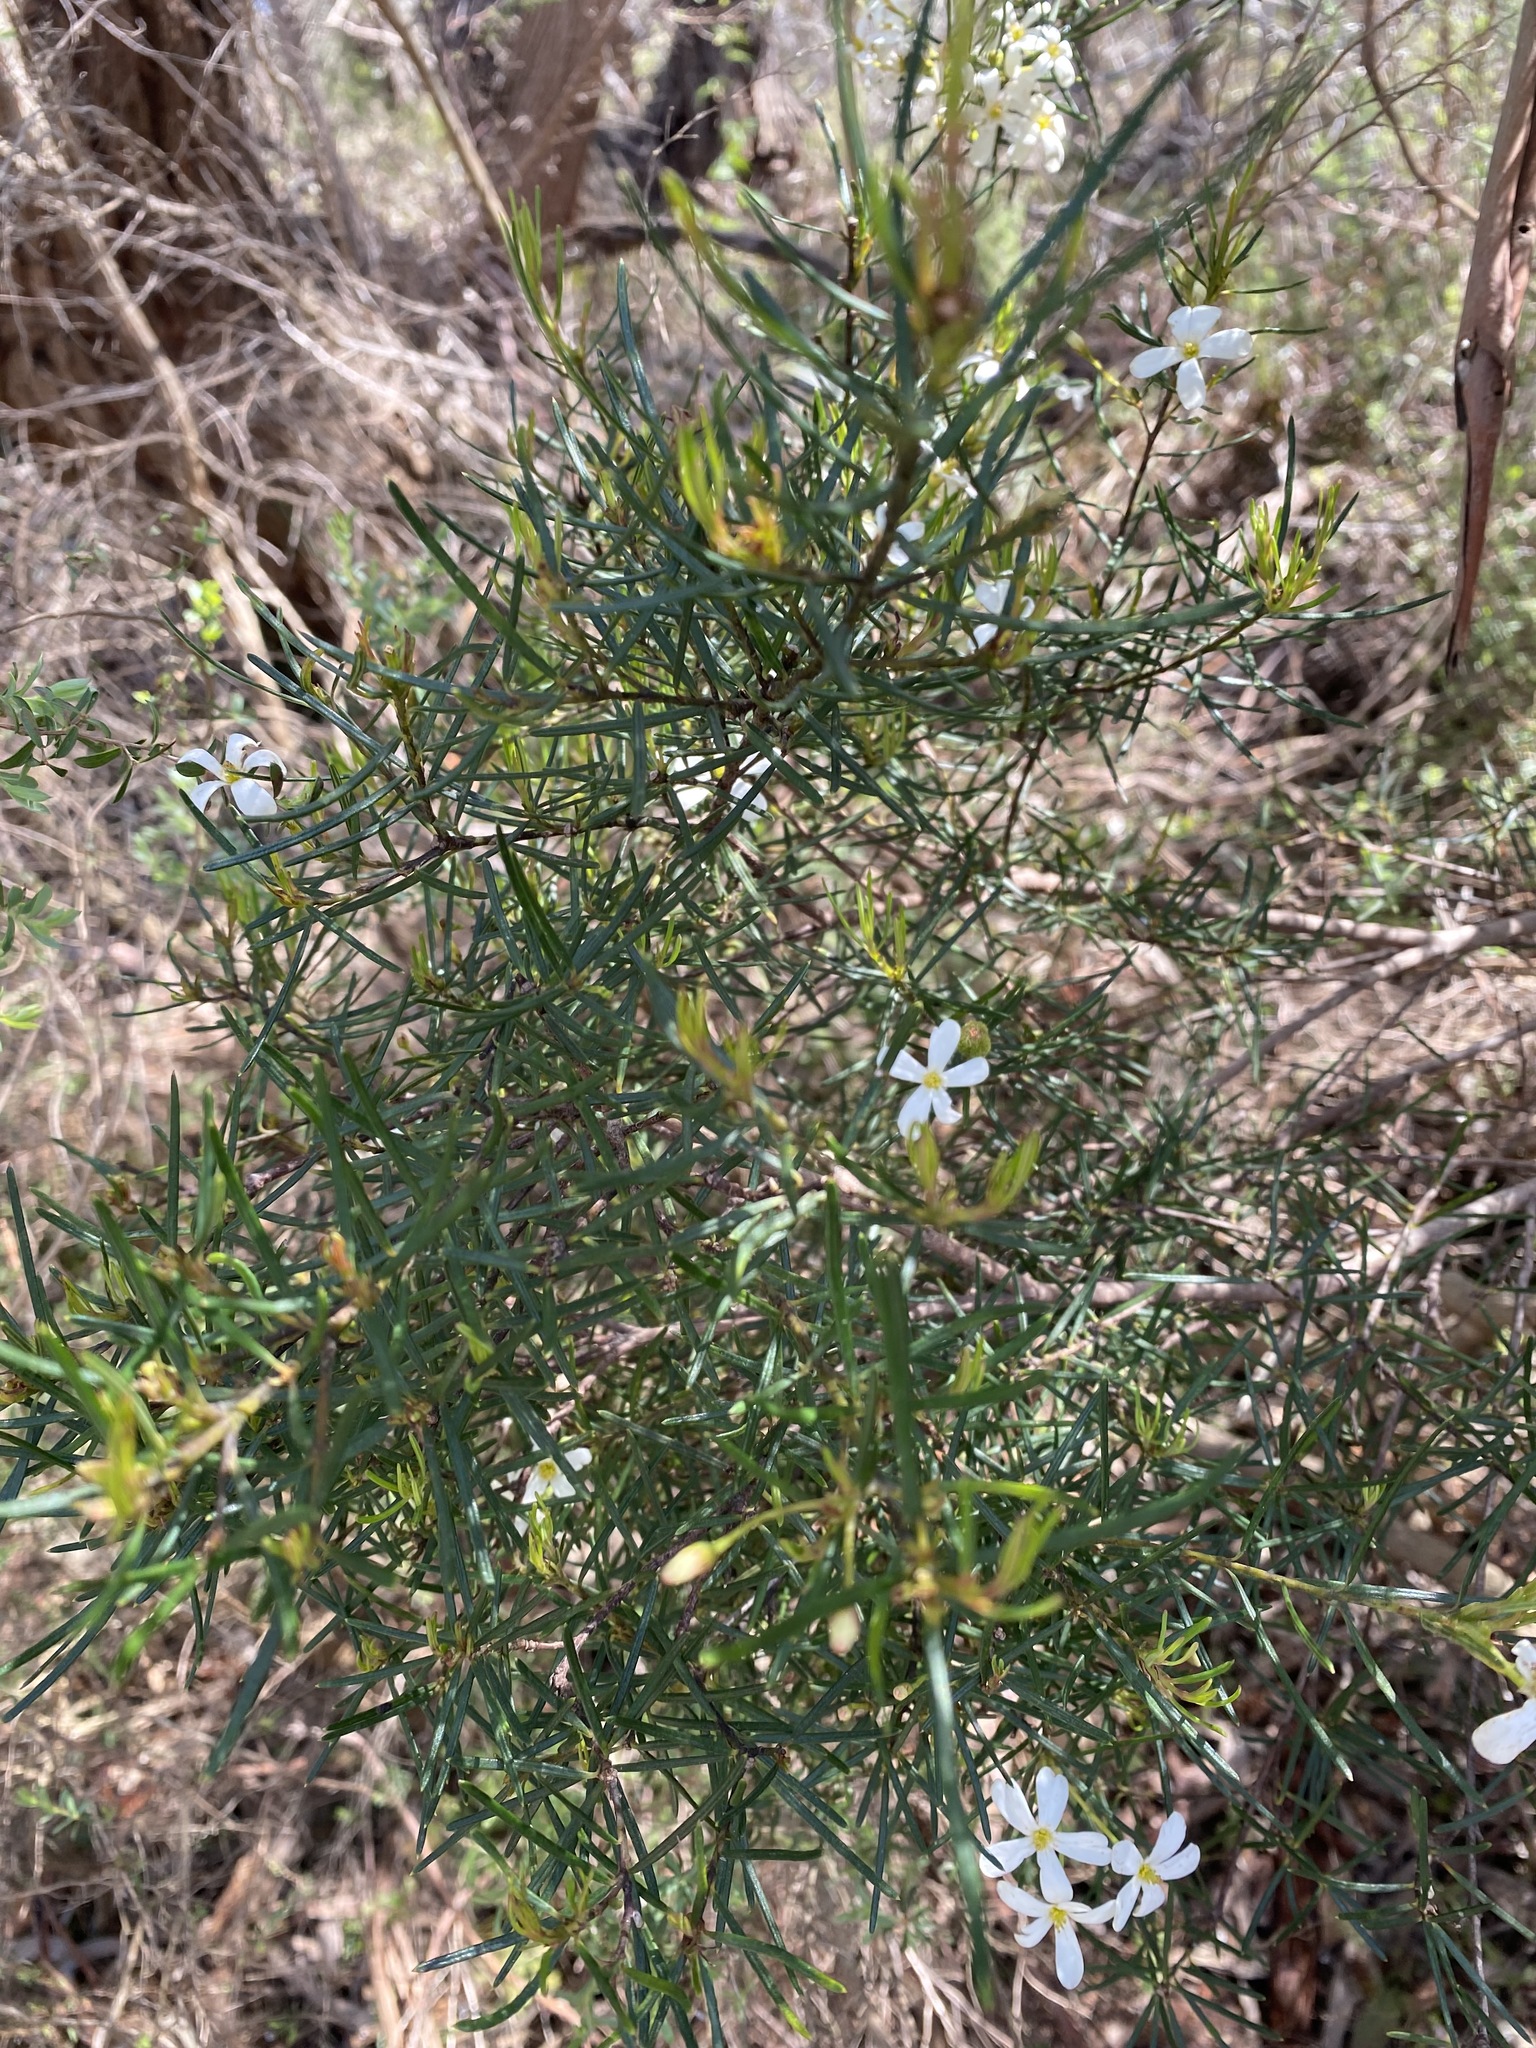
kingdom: Plantae
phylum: Tracheophyta
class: Magnoliopsida
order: Malpighiales
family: Euphorbiaceae
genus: Ricinocarpos
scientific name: Ricinocarpos pinifolius
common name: Weddingbush
